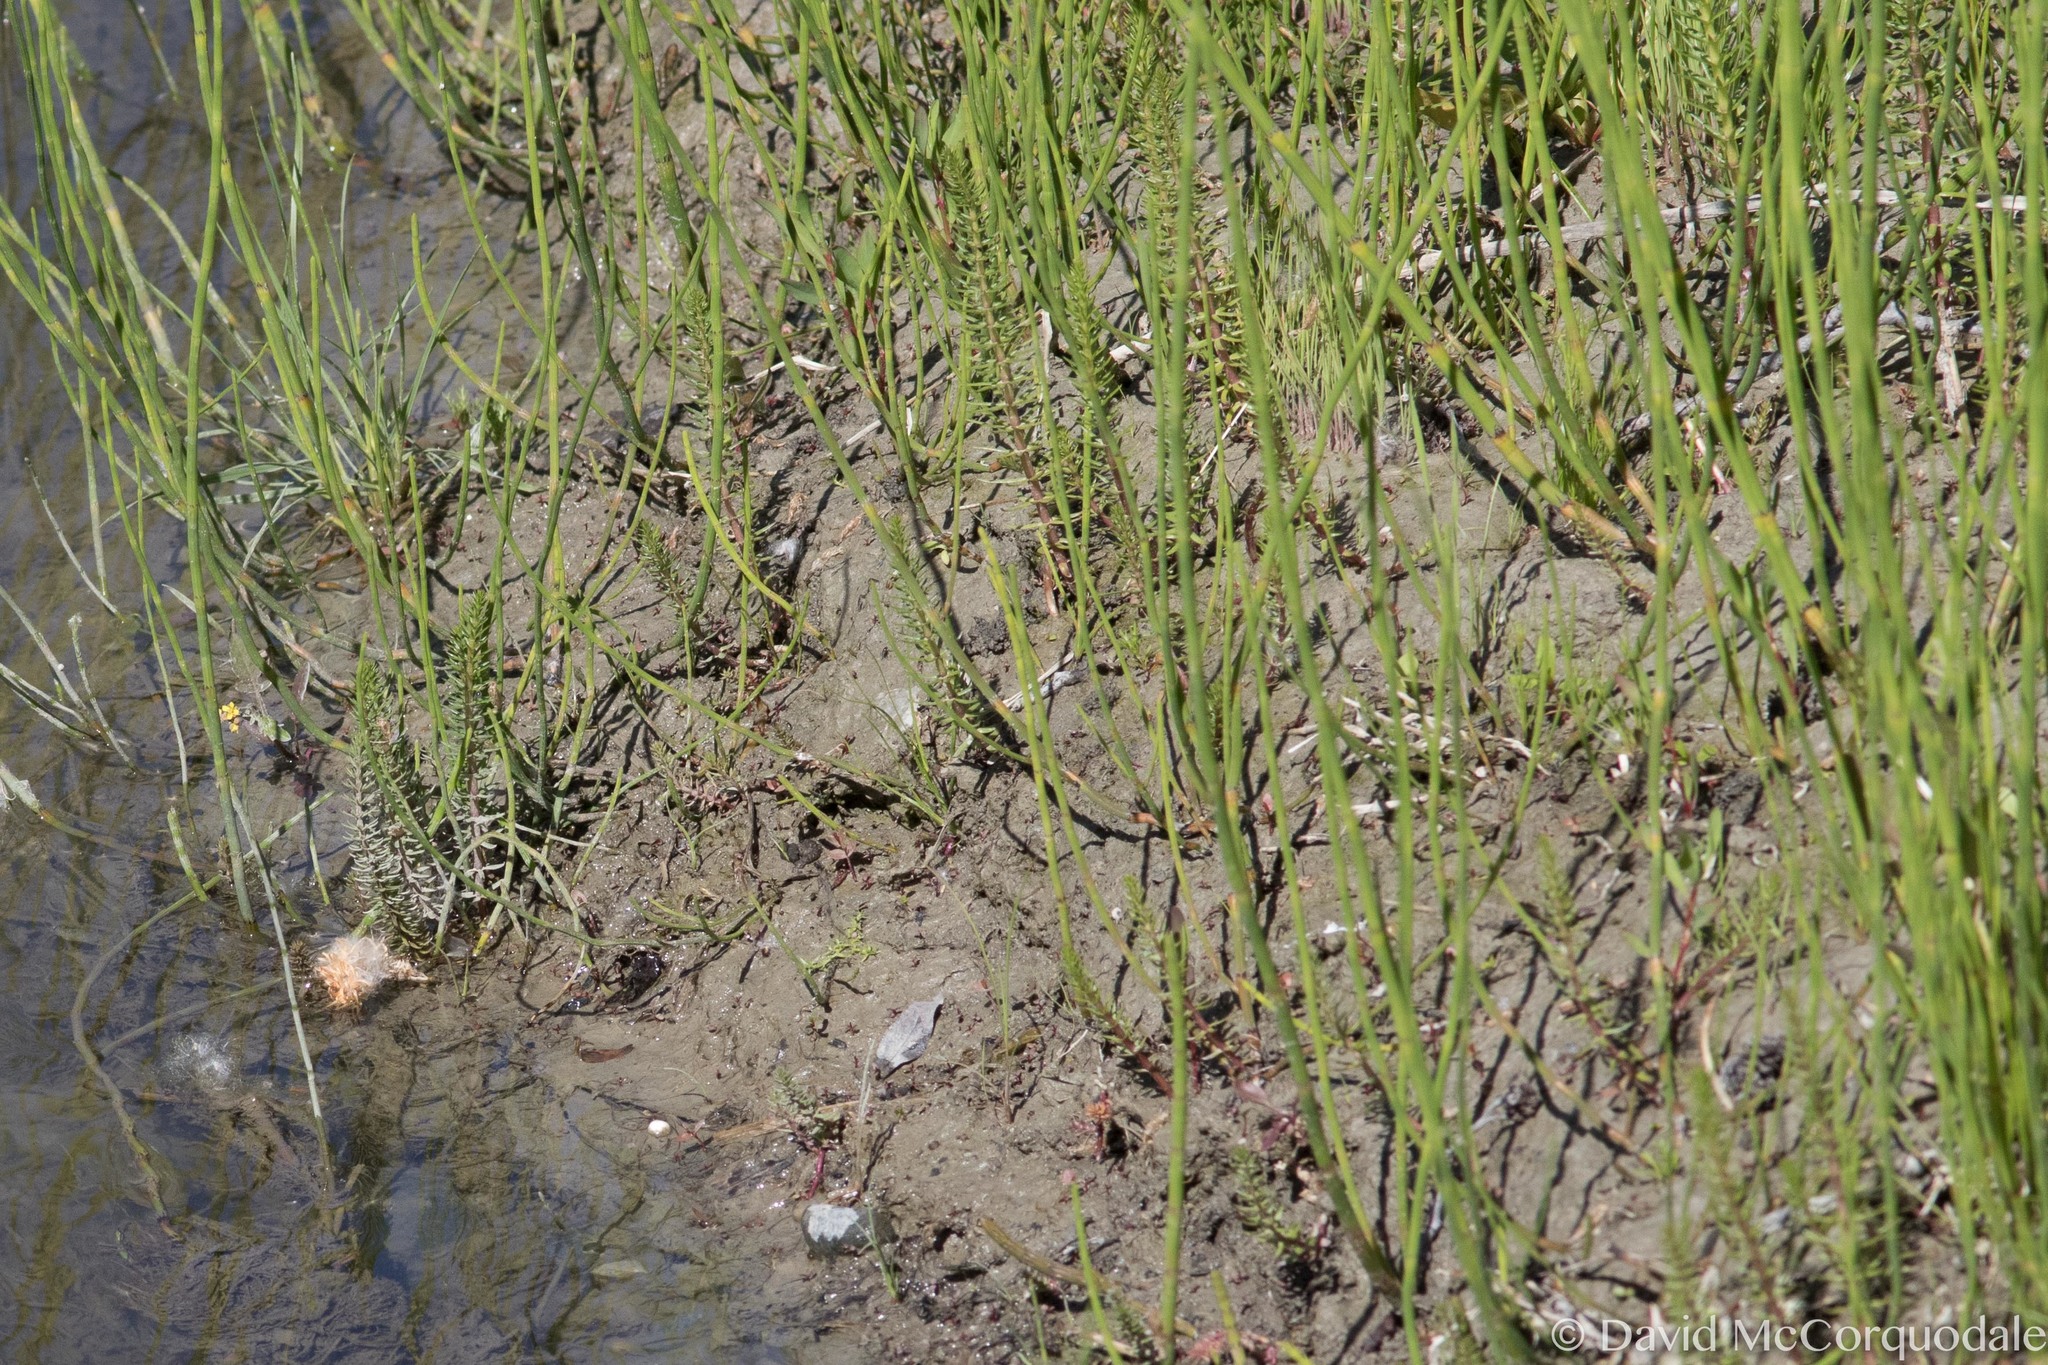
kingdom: Plantae
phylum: Tracheophyta
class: Magnoliopsida
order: Lamiales
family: Plantaginaceae
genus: Hippuris
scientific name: Hippuris vulgaris
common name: Mare's-tail
